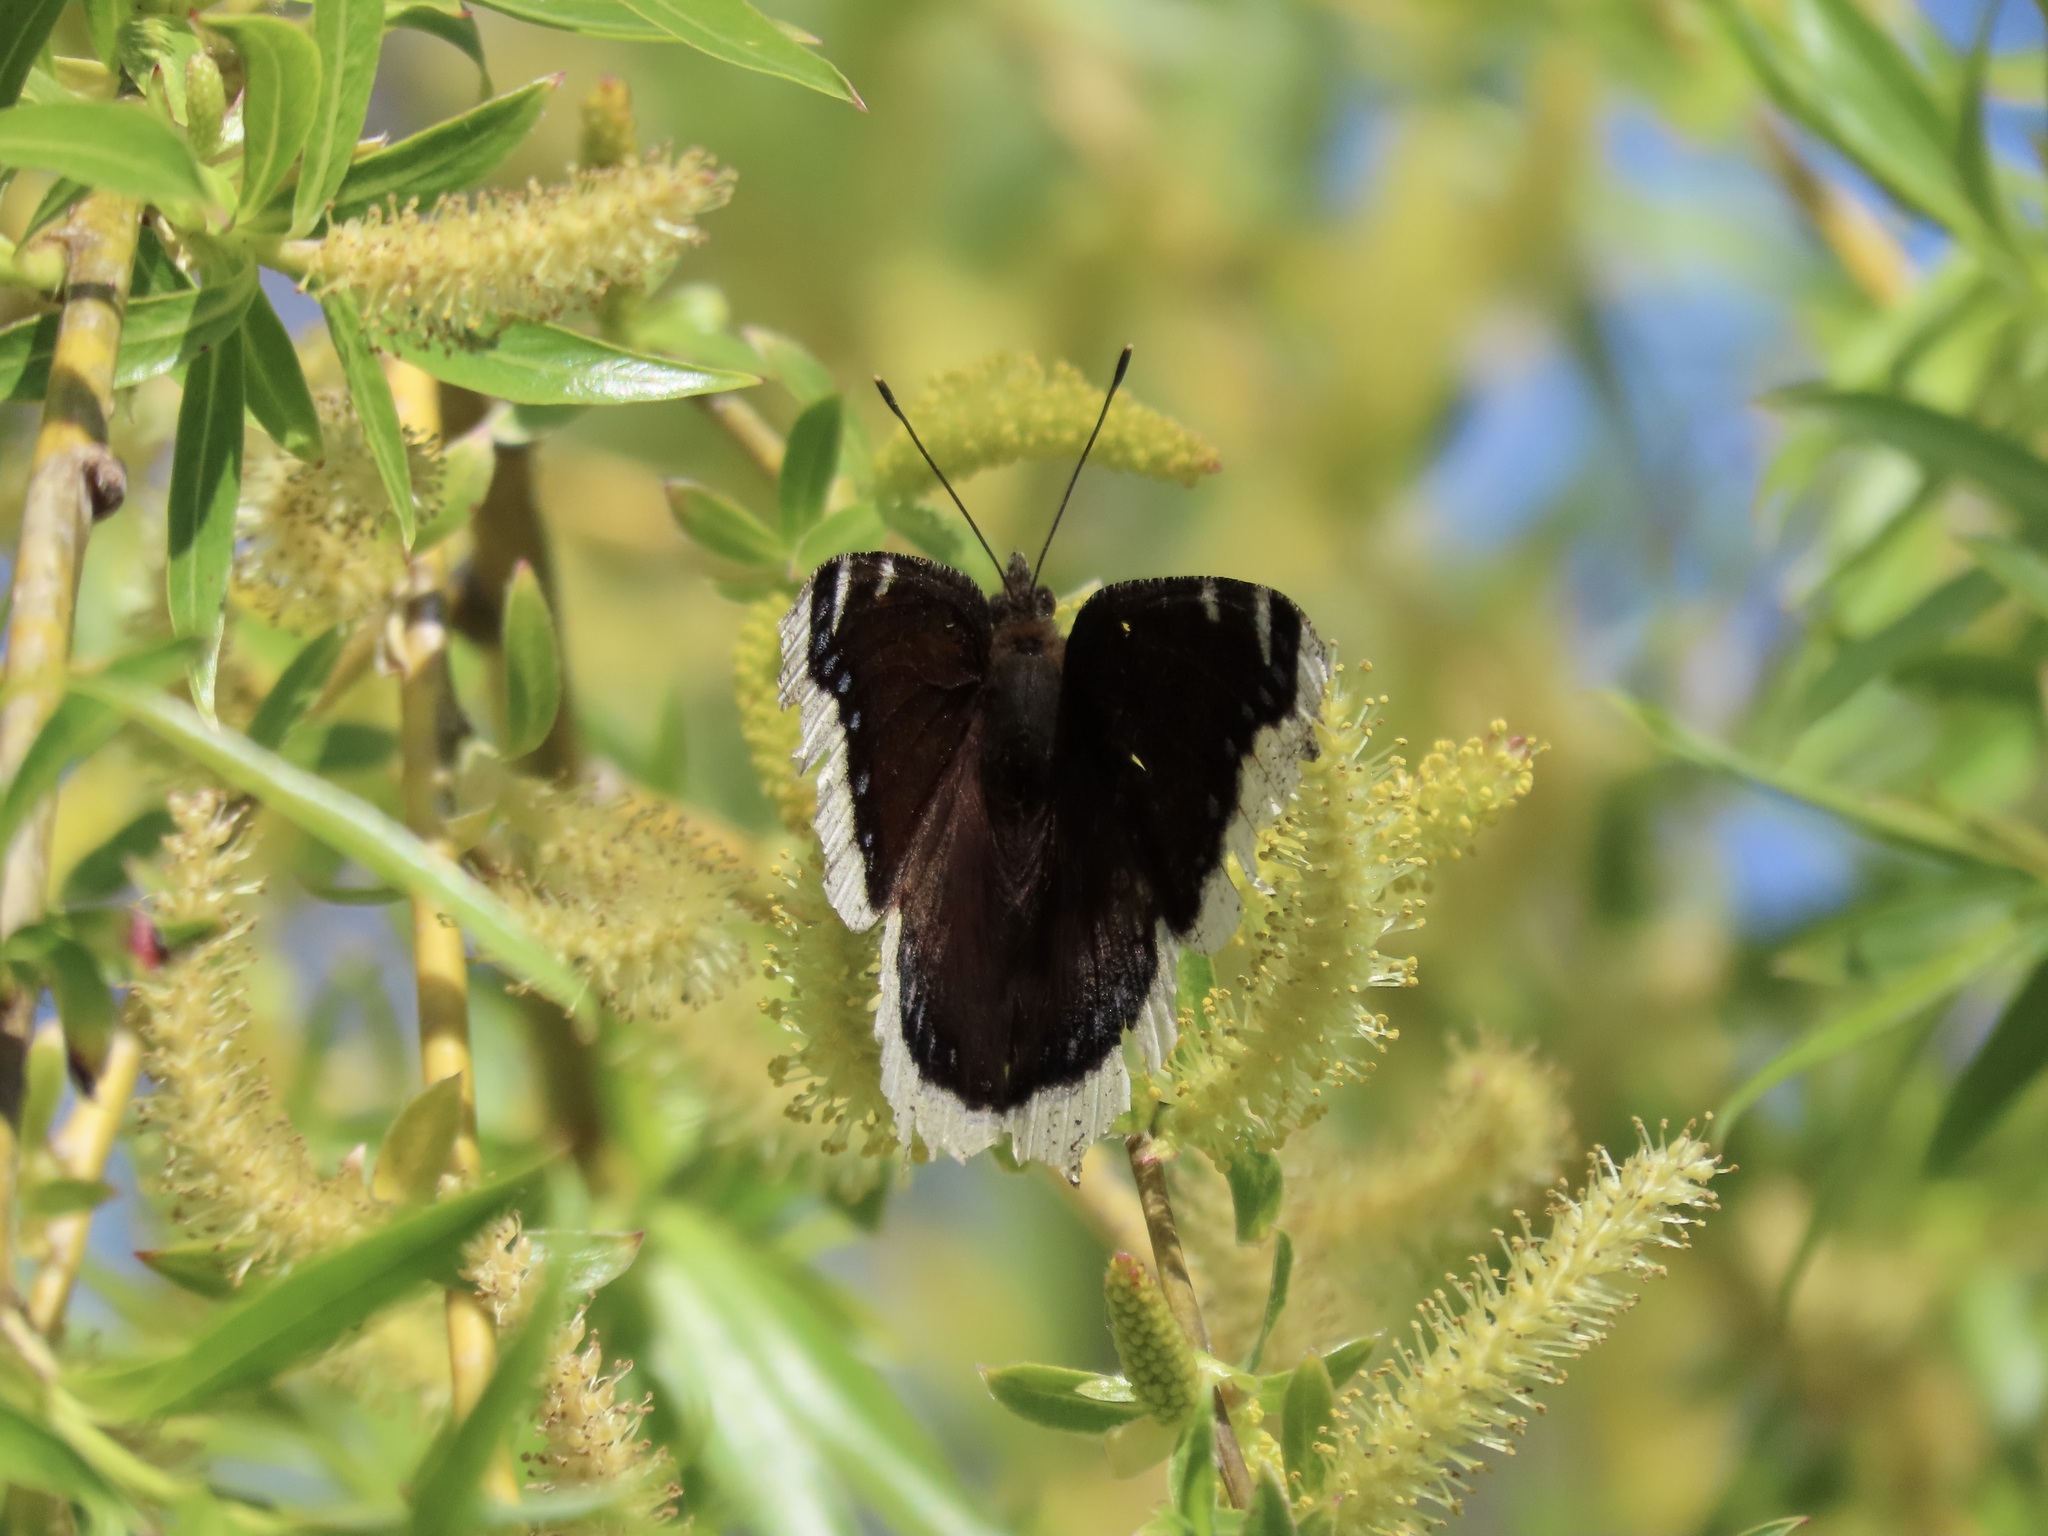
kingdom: Animalia
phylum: Arthropoda
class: Insecta
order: Lepidoptera
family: Nymphalidae
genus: Nymphalis
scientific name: Nymphalis antiopa
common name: Camberwell beauty
